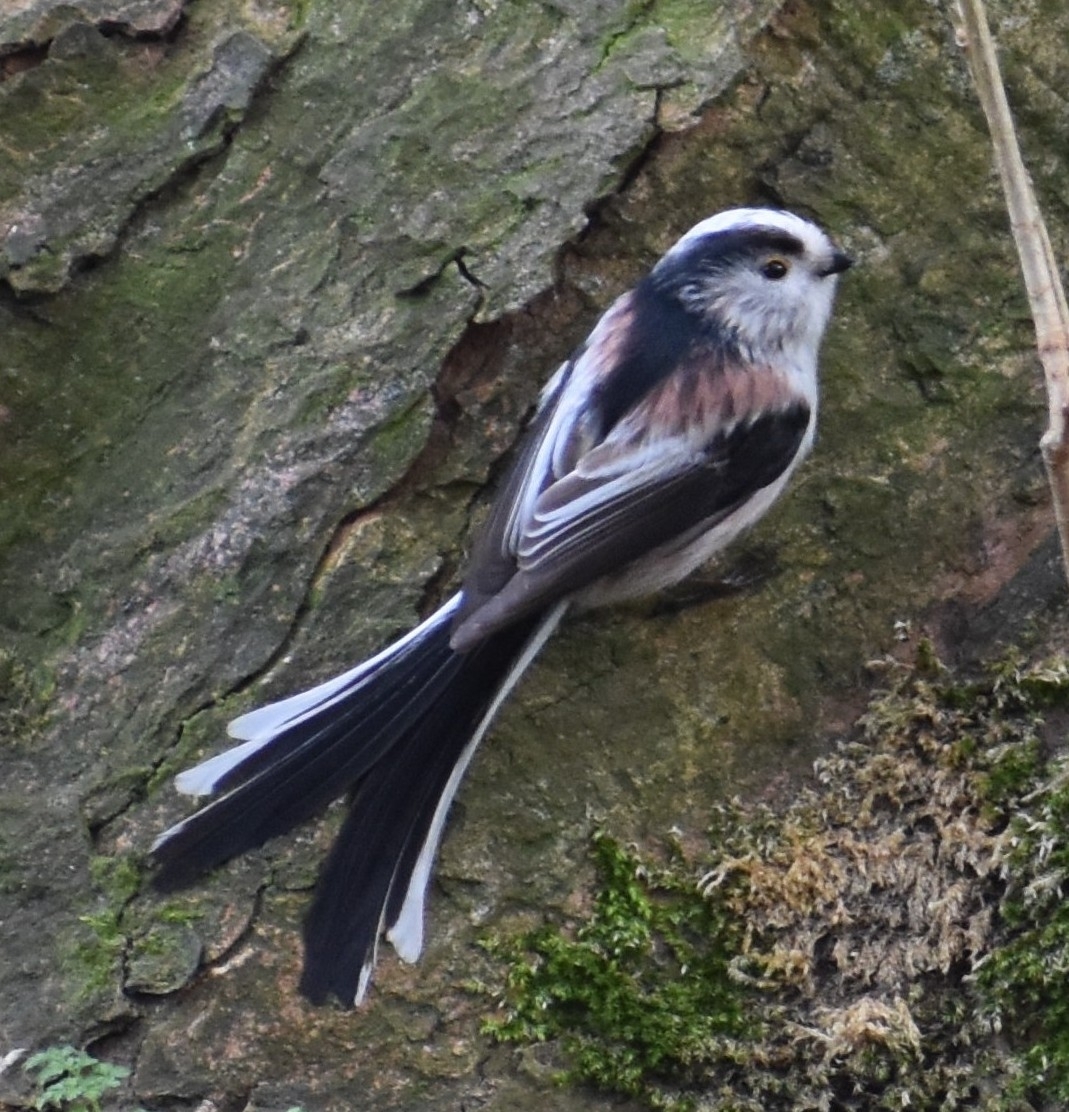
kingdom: Animalia
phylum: Chordata
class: Aves
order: Passeriformes
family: Aegithalidae
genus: Aegithalos
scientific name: Aegithalos caudatus
